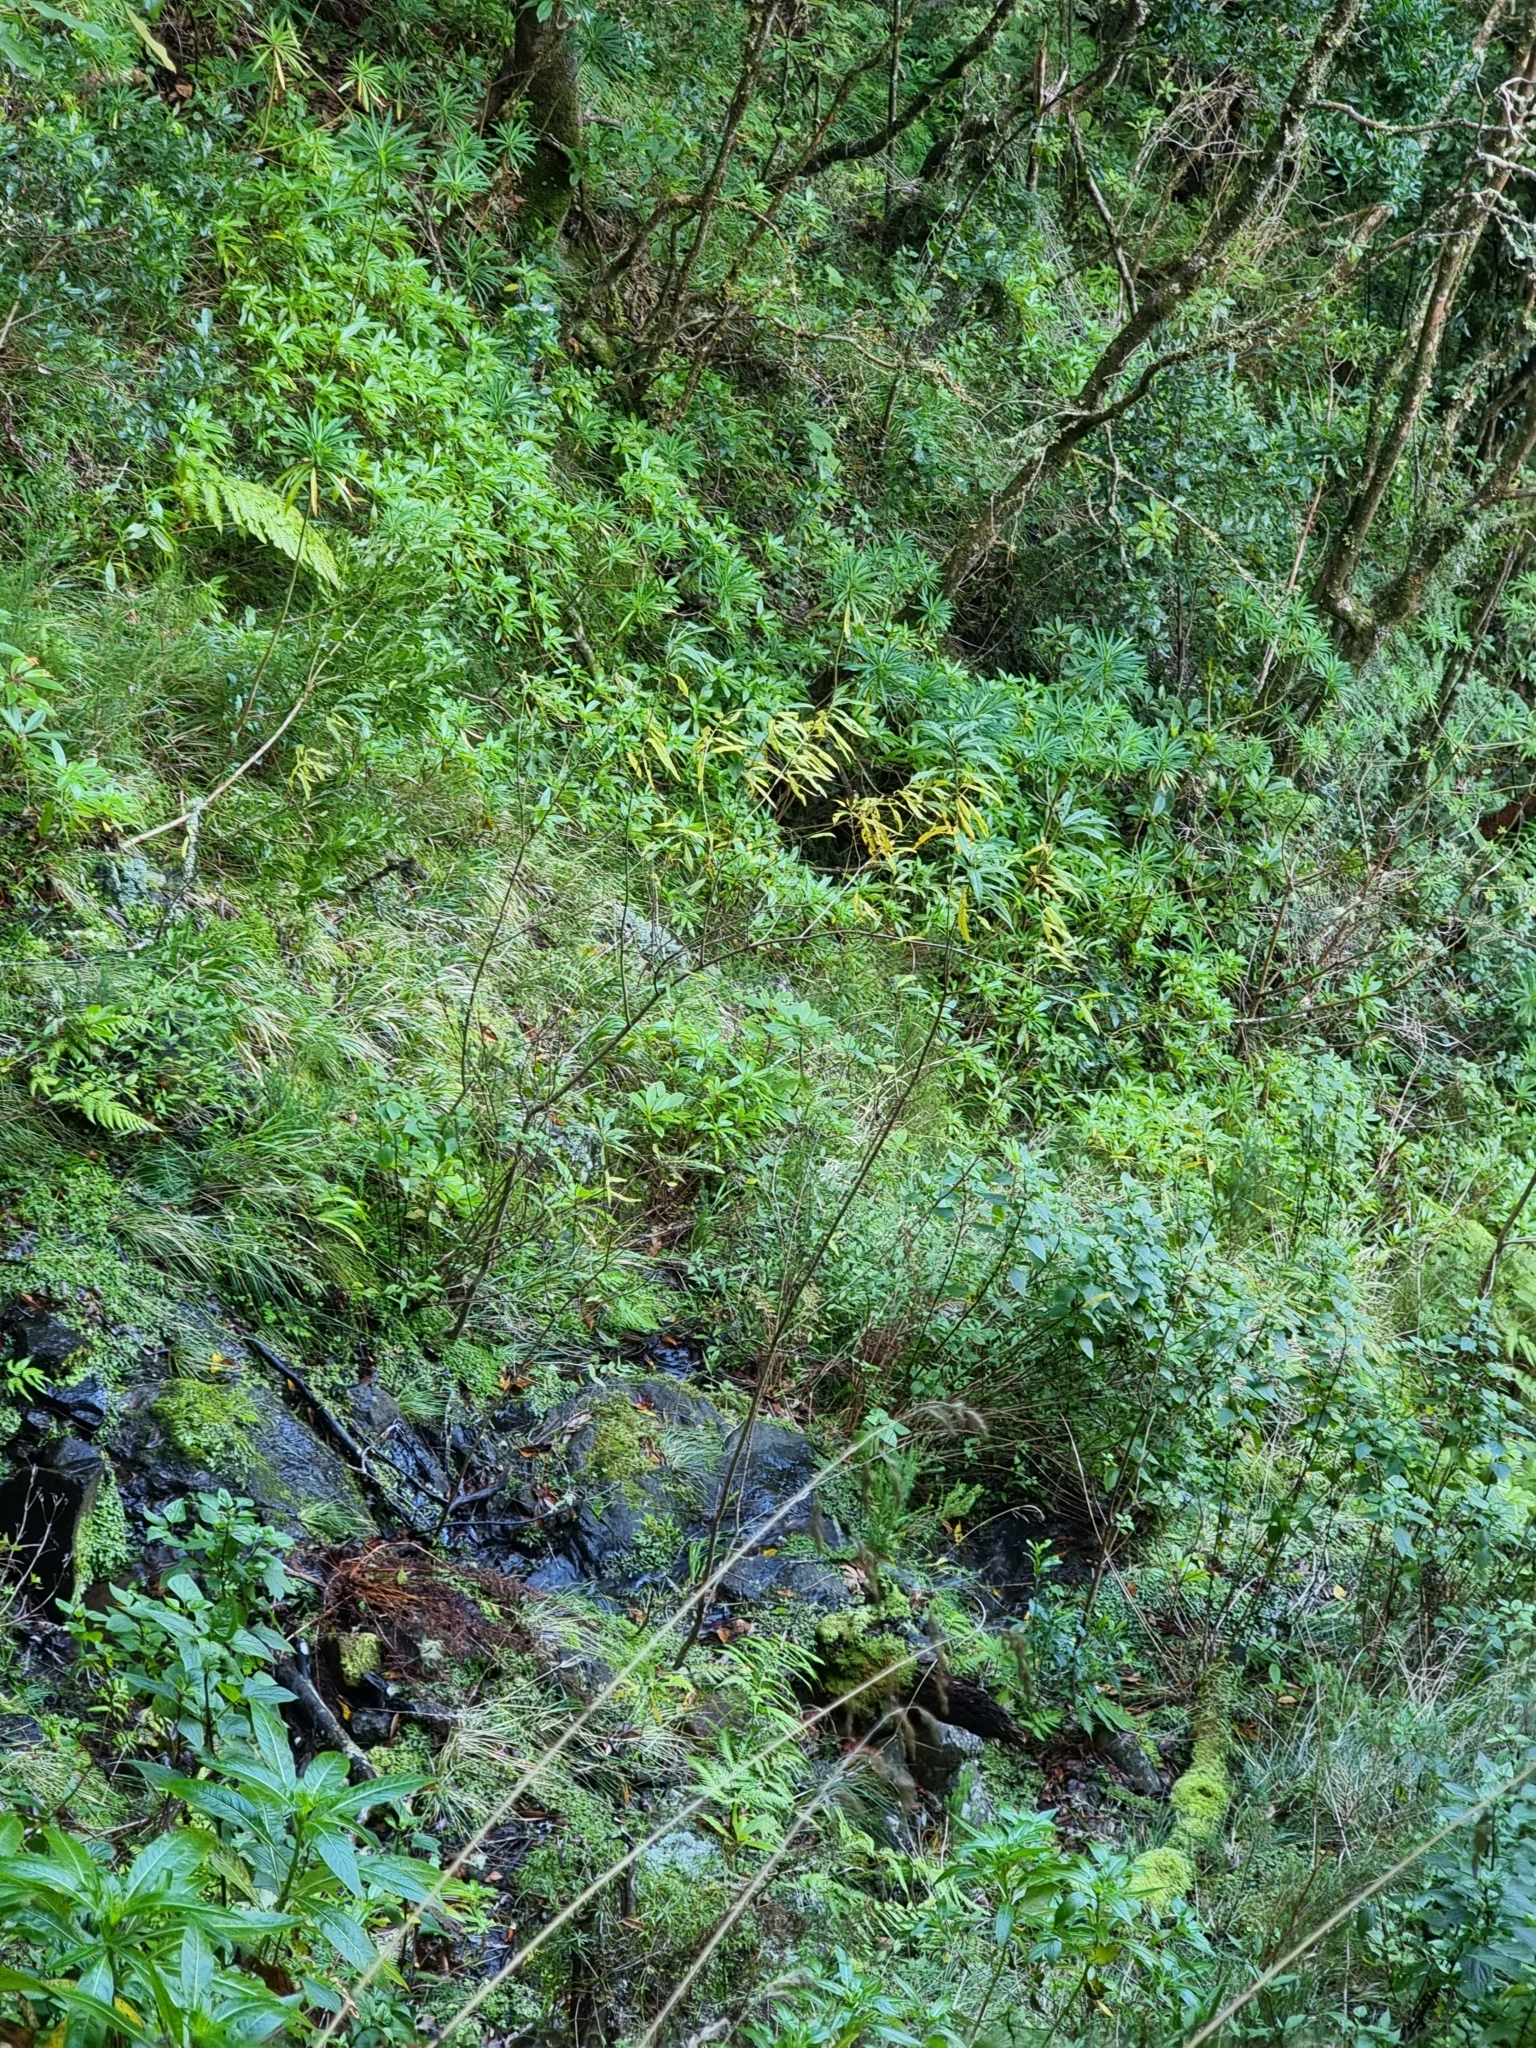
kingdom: Plantae
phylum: Tracheophyta
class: Magnoliopsida
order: Malpighiales
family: Salicaceae
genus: Salix
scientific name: Salix canariensis
